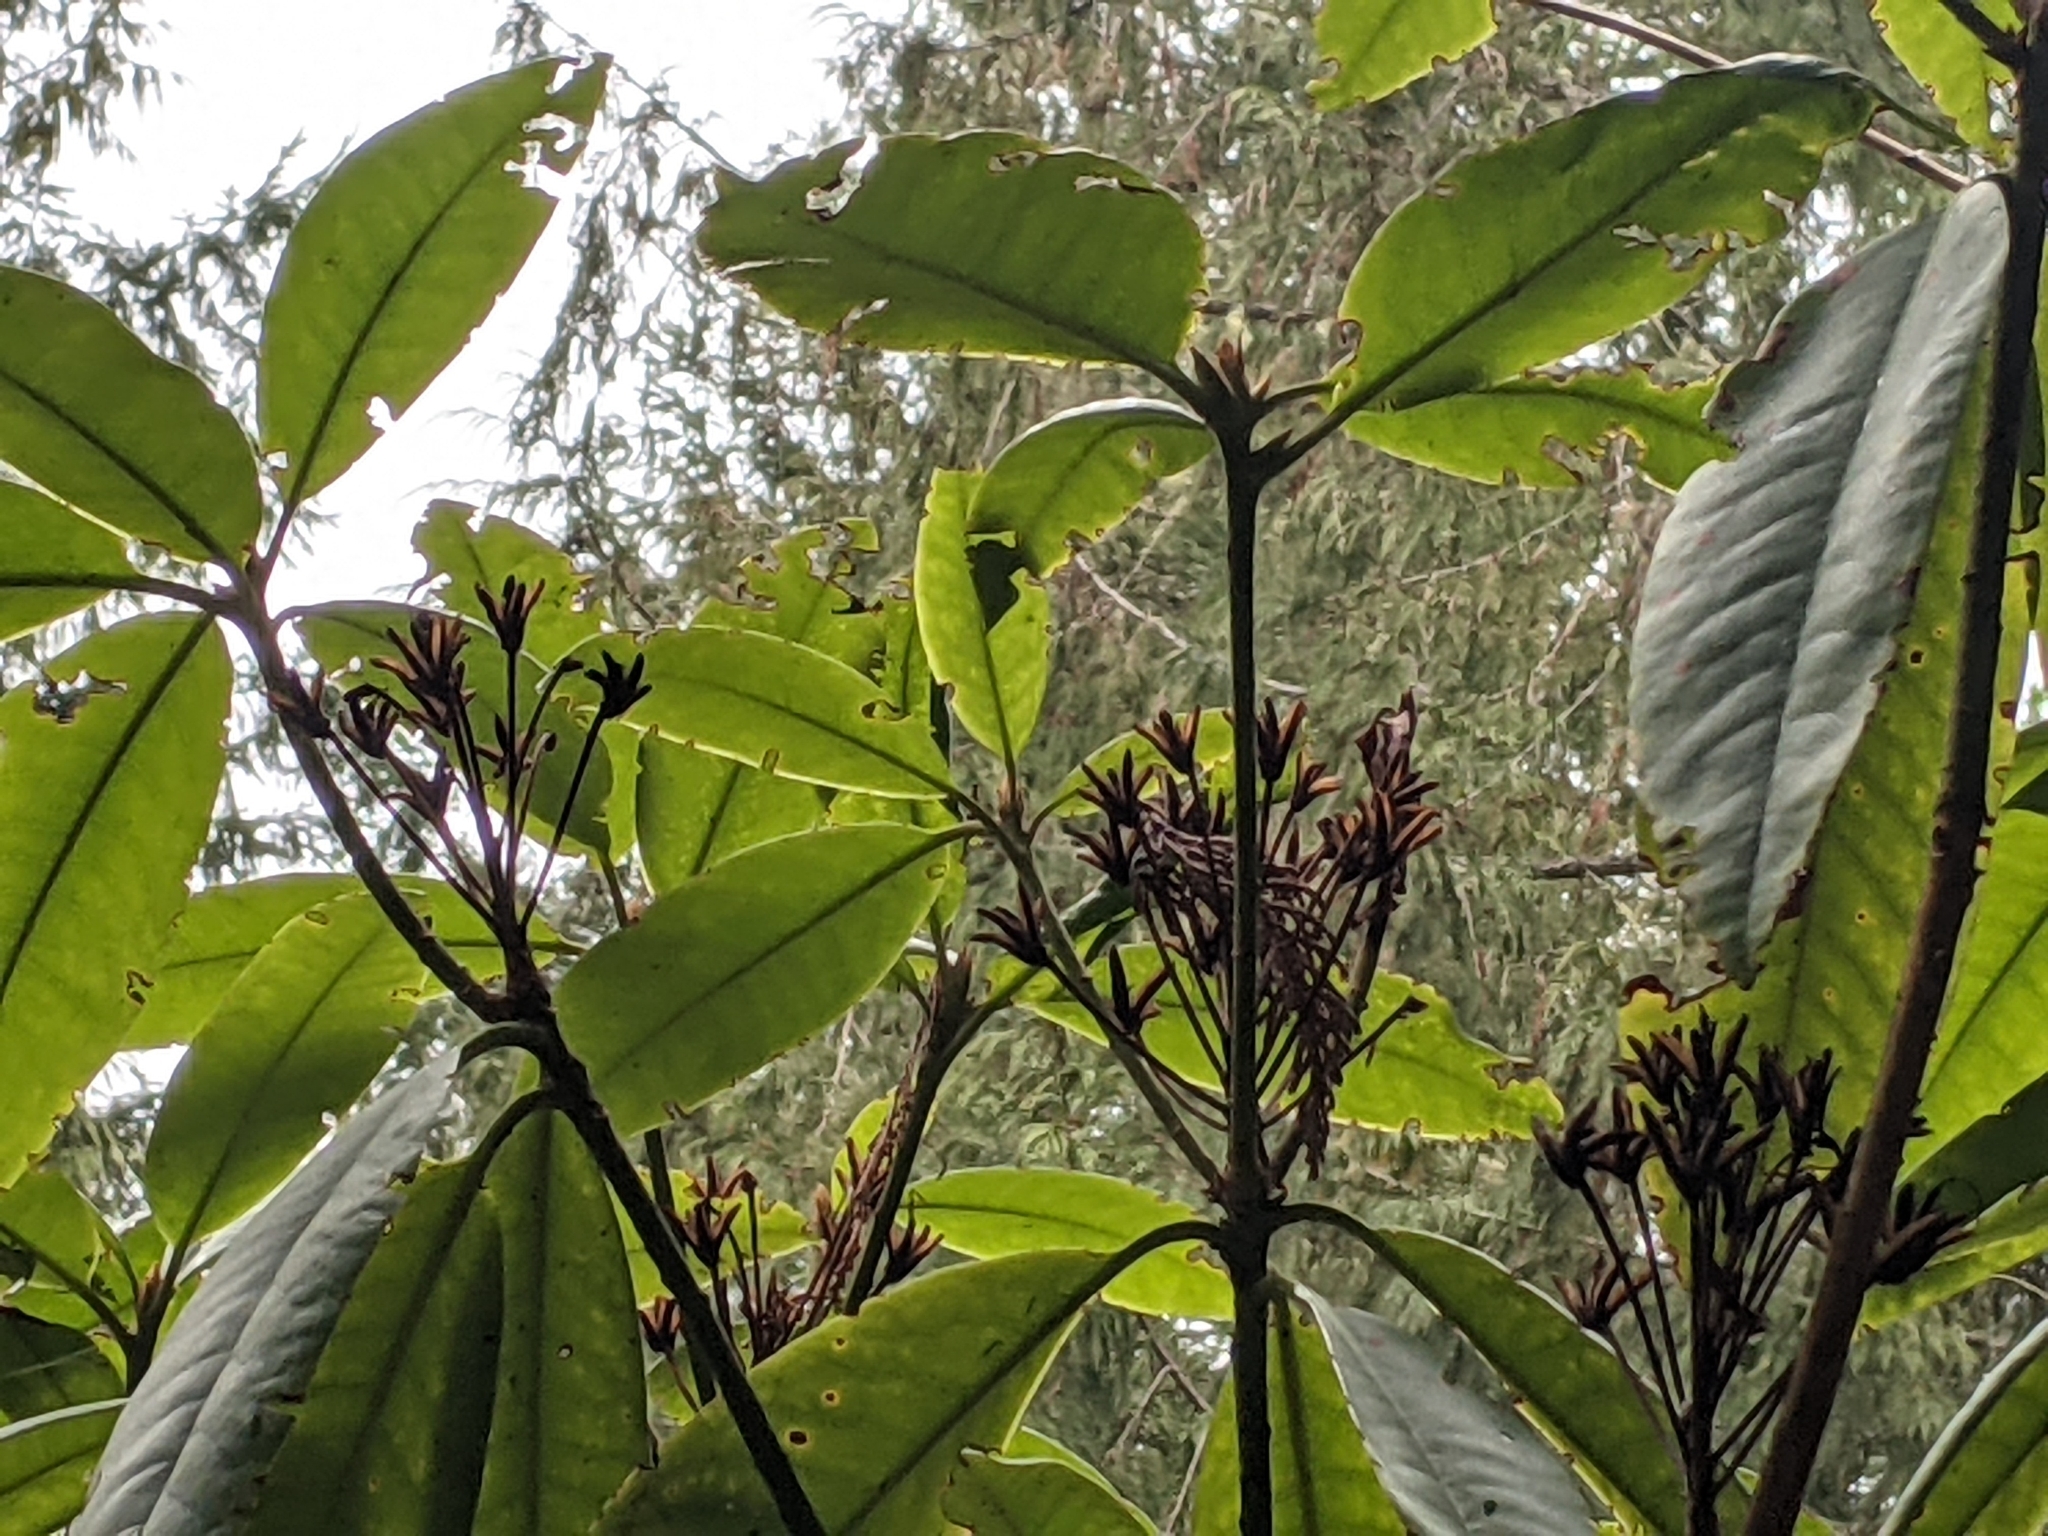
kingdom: Plantae
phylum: Tracheophyta
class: Magnoliopsida
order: Ericales
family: Ericaceae
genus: Rhododendron
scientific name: Rhododendron macrophyllum
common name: California rose bay
